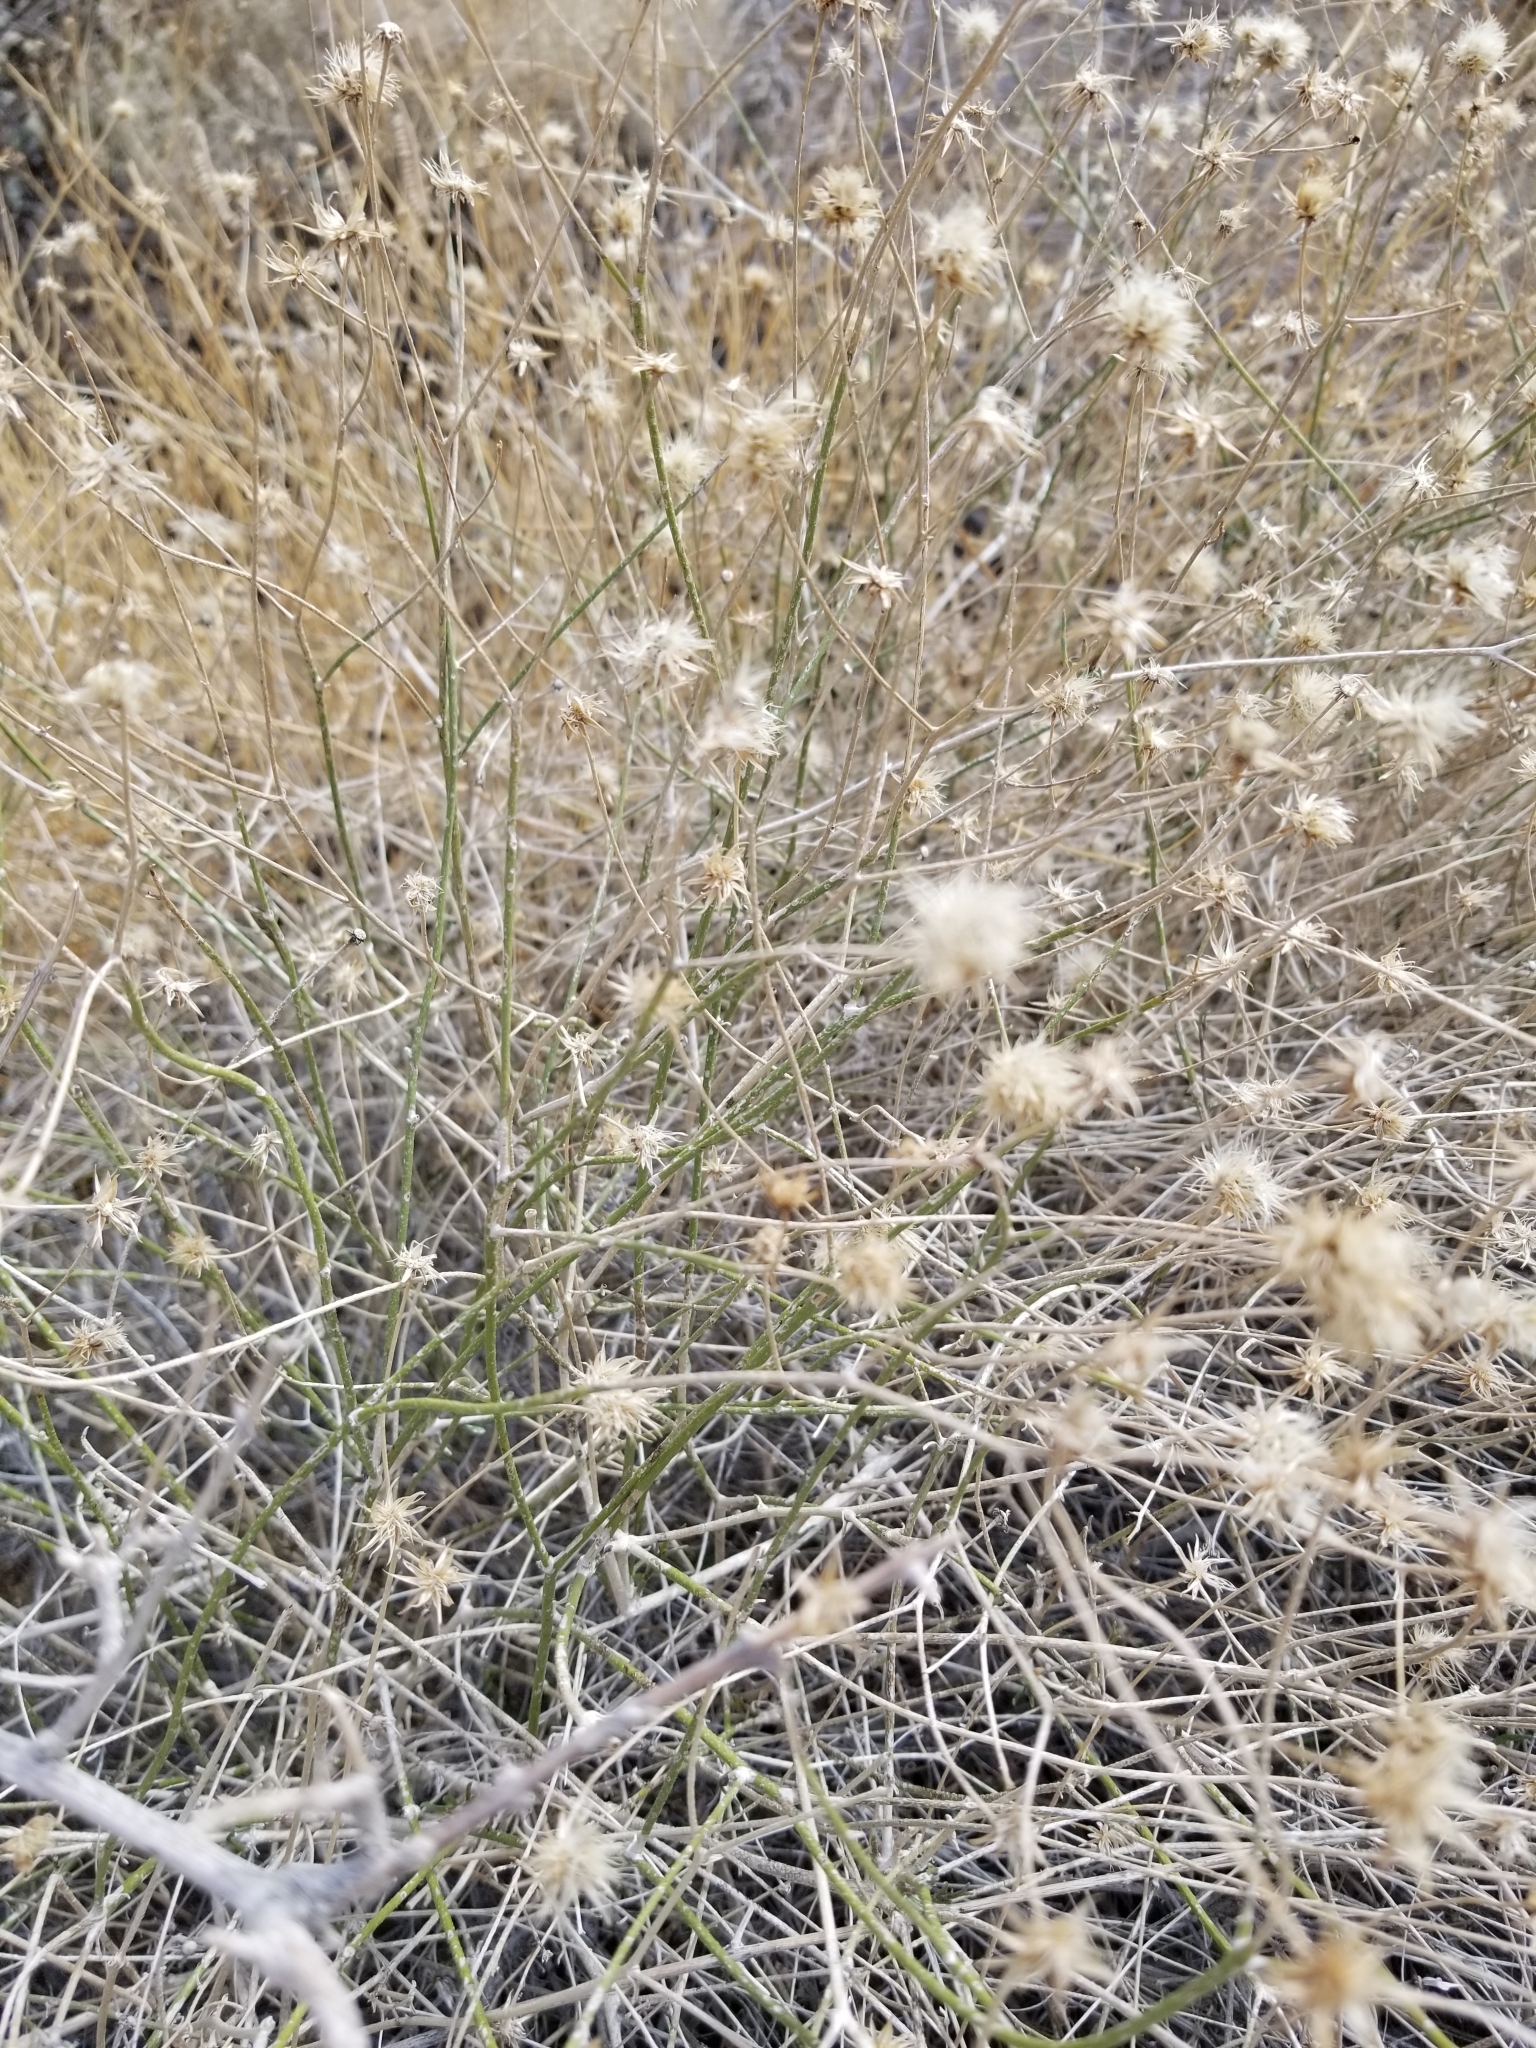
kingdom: Plantae
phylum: Tracheophyta
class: Magnoliopsida
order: Asterales
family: Asteraceae
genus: Bebbia
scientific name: Bebbia juncea
